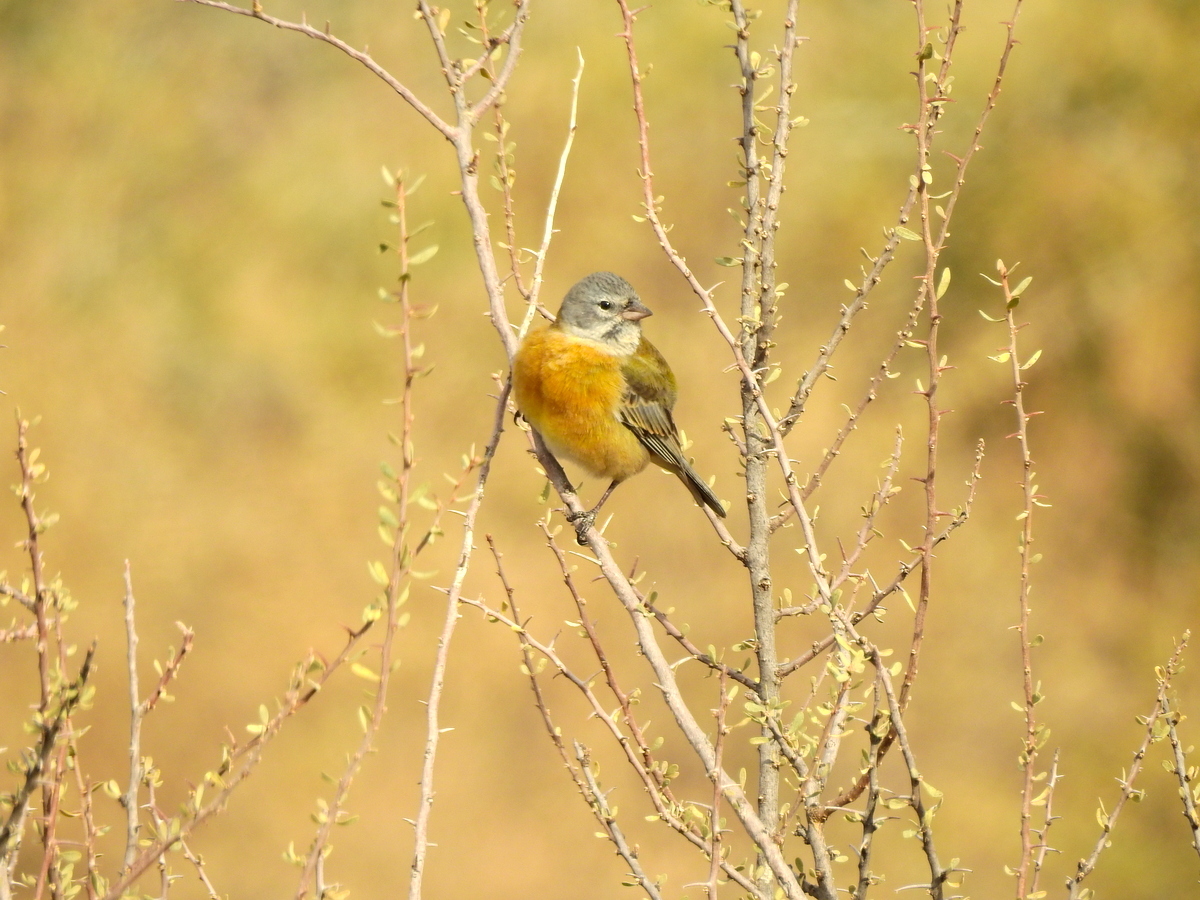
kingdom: Animalia
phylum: Chordata
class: Aves
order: Passeriformes
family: Thraupidae
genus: Phrygilus
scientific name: Phrygilus gayi
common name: Grey-hooded sierra finch
